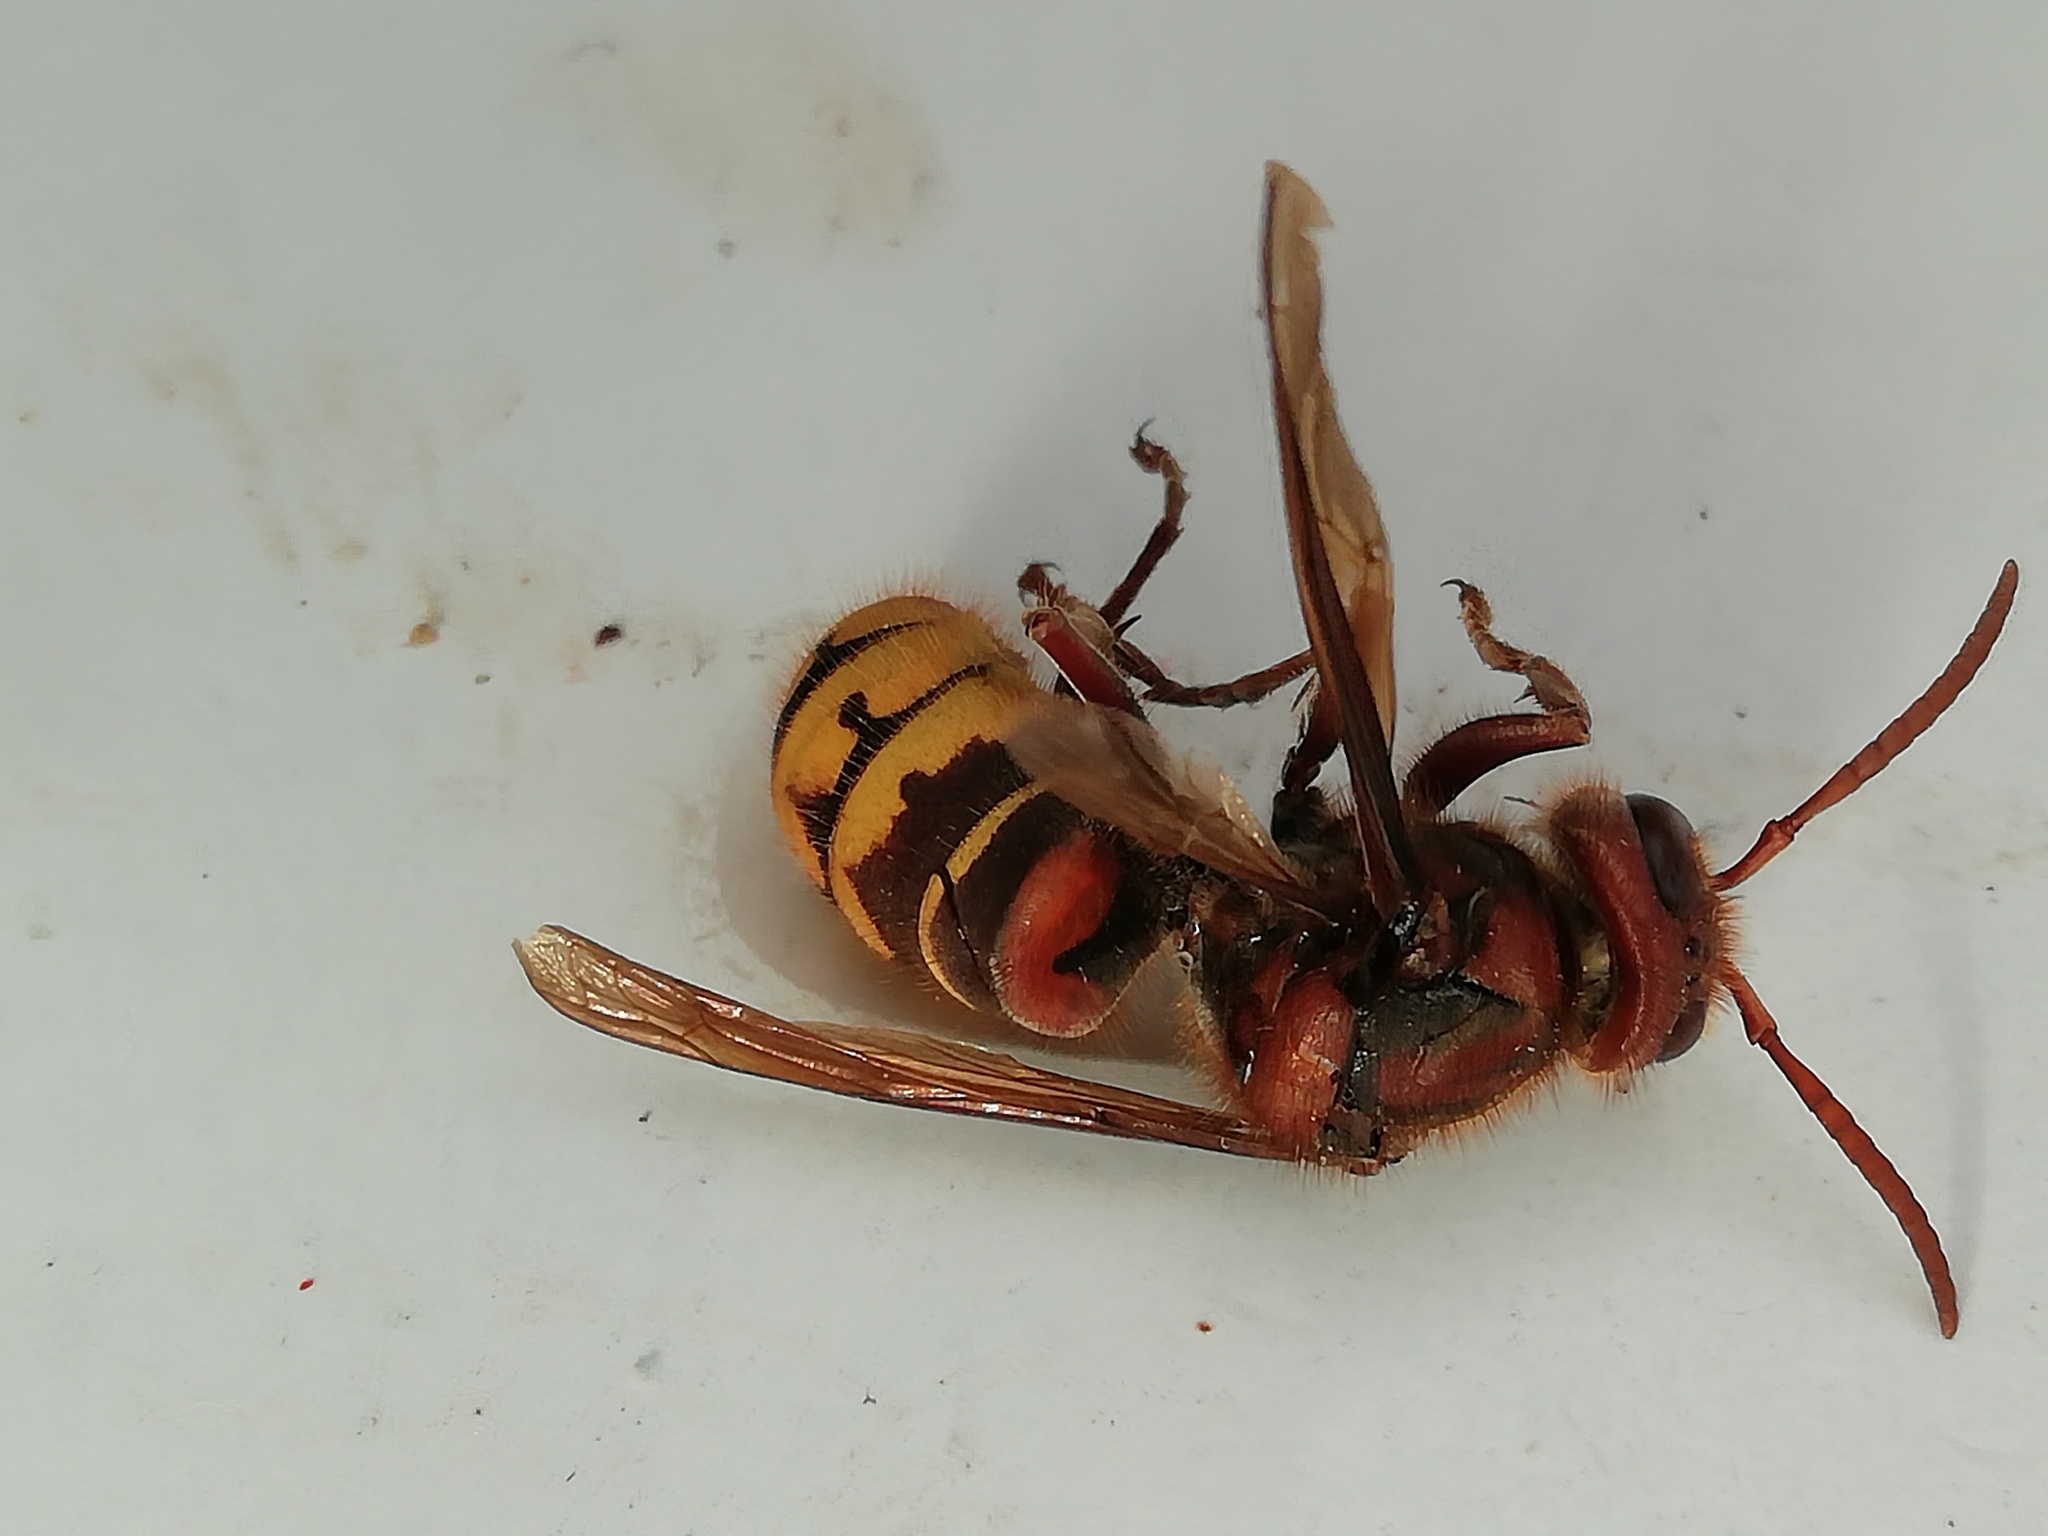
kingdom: Animalia
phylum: Arthropoda
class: Insecta
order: Hymenoptera
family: Vespidae
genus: Vespa
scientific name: Vespa crabro
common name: Hornet
